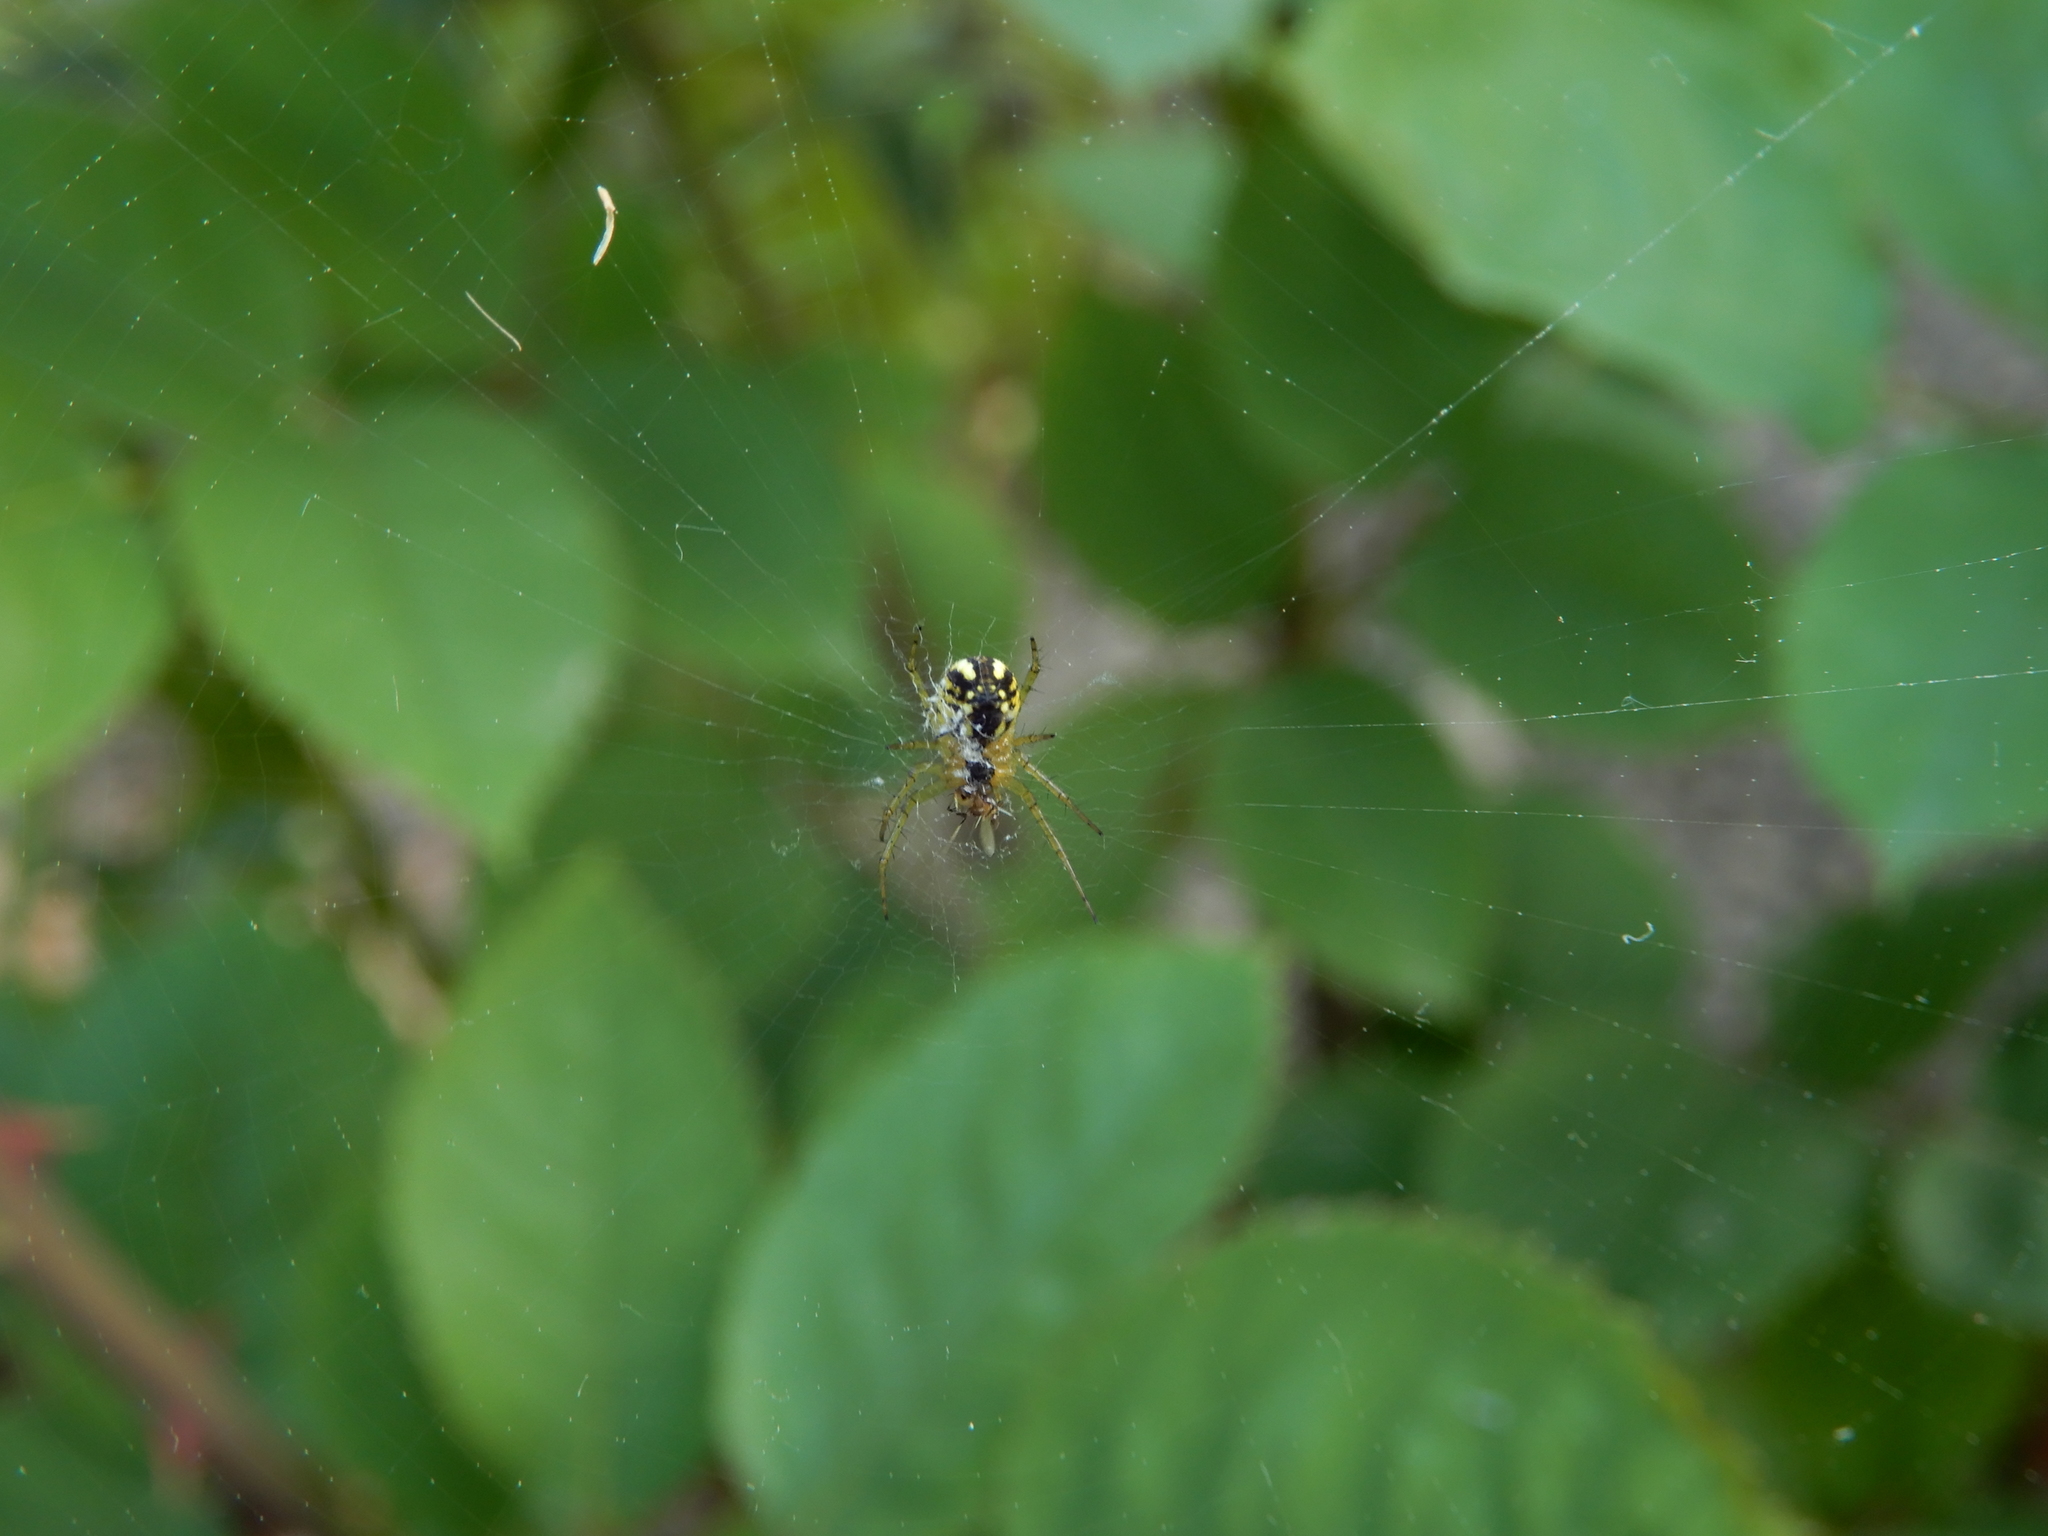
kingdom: Animalia
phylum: Arthropoda
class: Arachnida
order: Araneae
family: Araneidae
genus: Mangora
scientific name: Mangora acalypha
